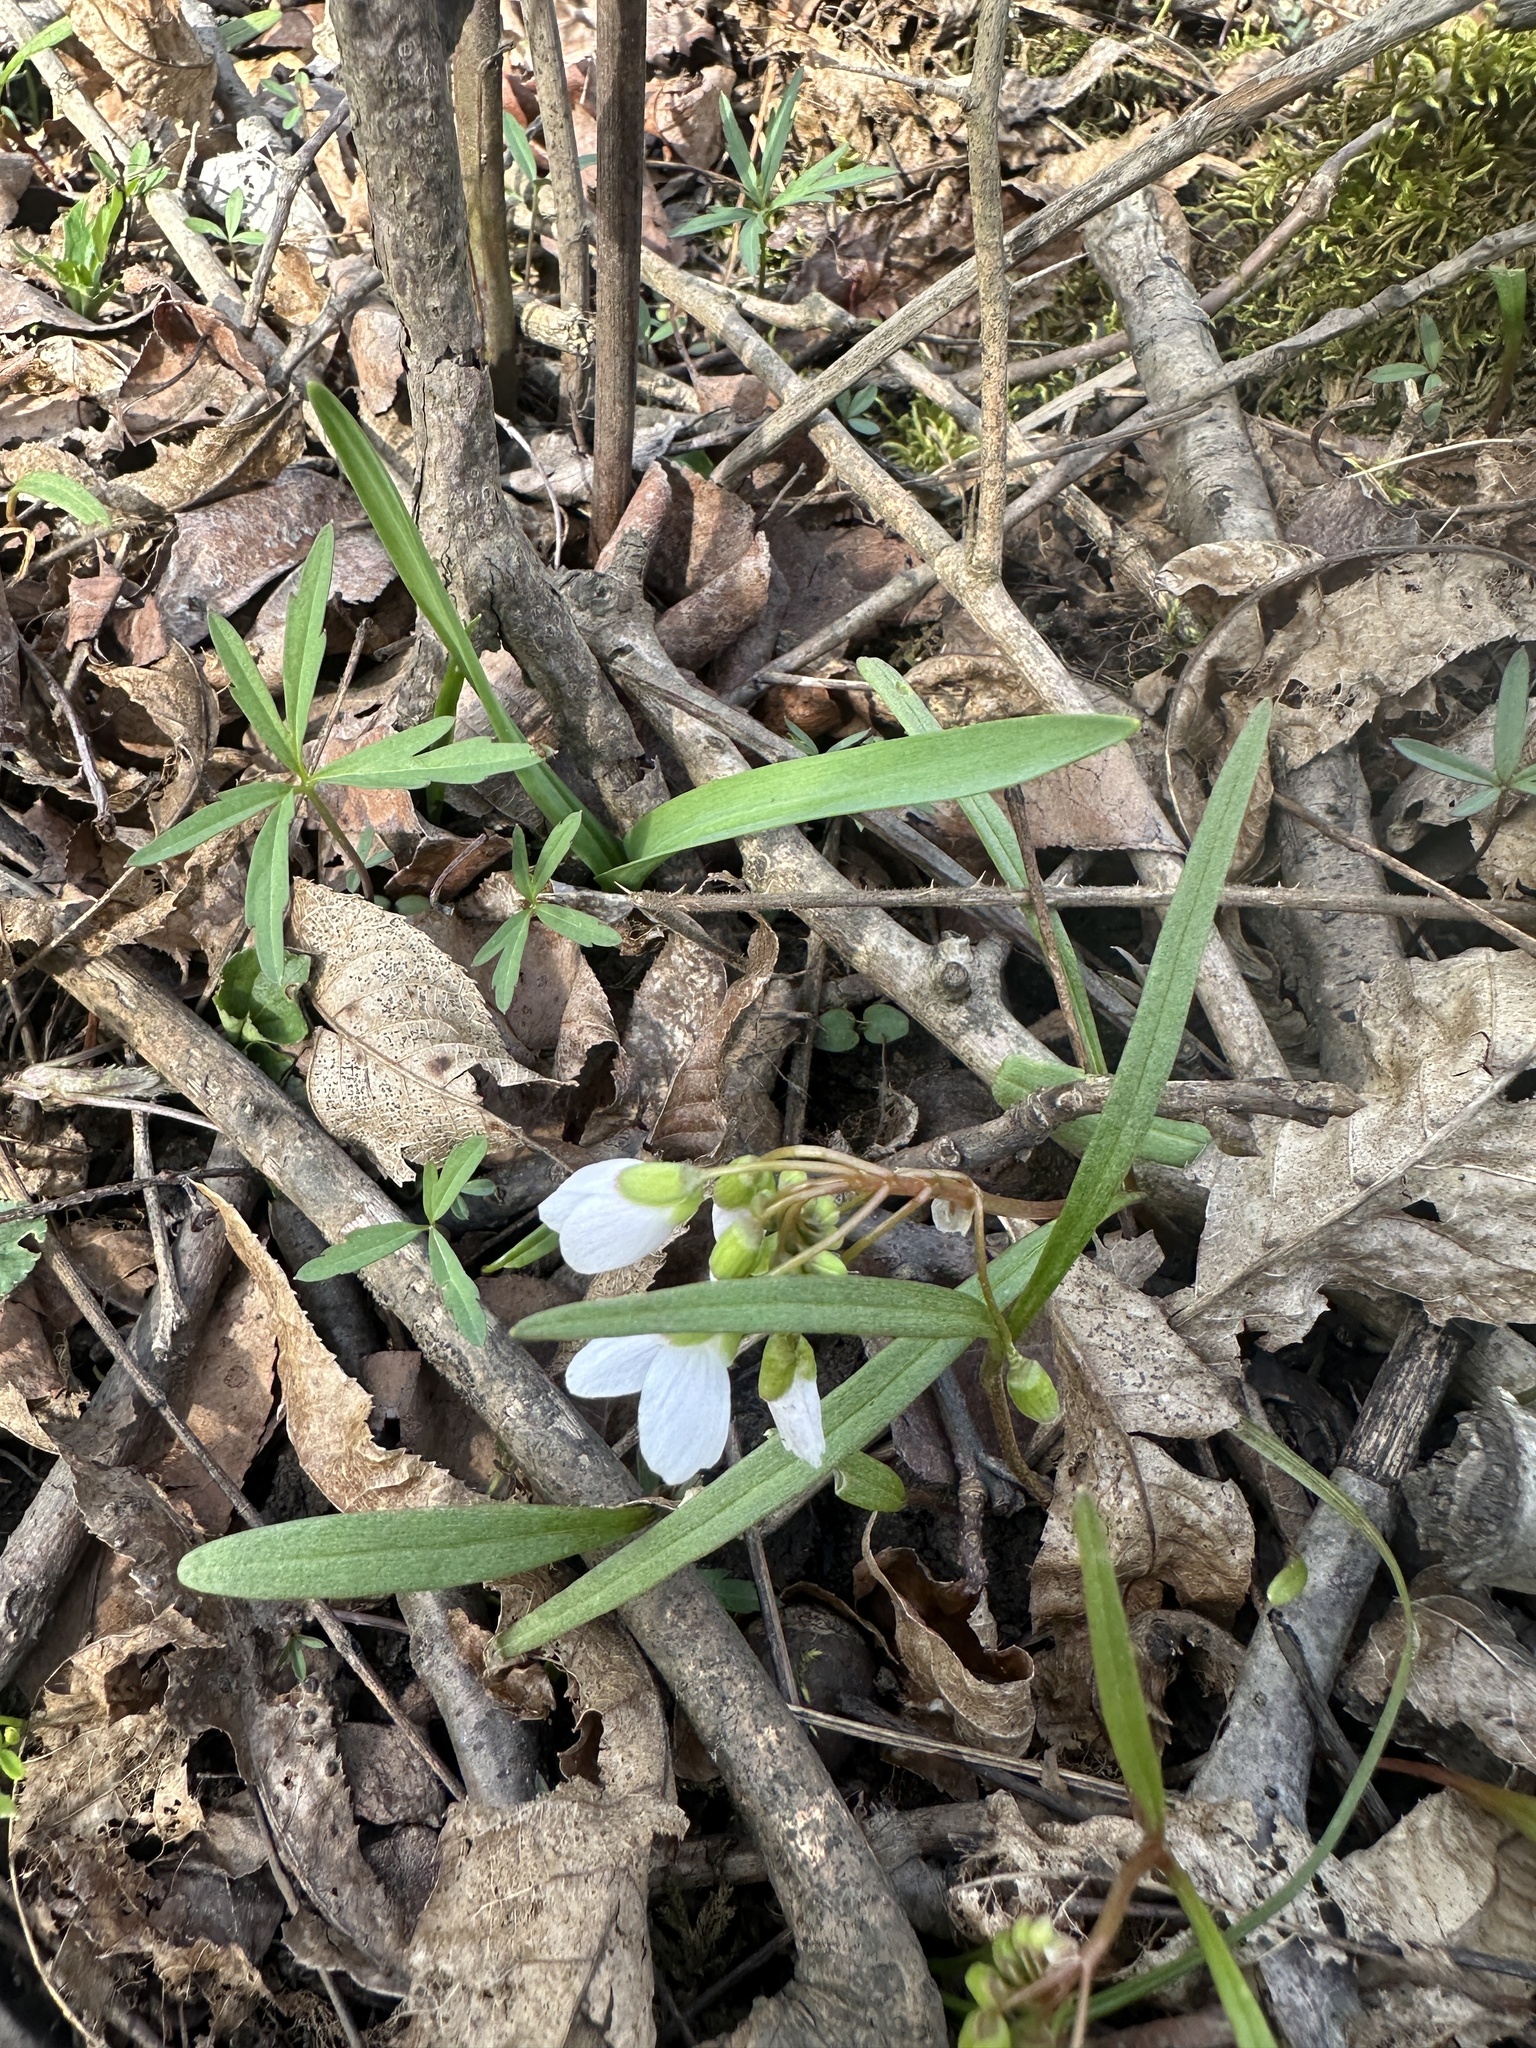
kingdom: Plantae
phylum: Tracheophyta
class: Magnoliopsida
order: Caryophyllales
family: Montiaceae
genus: Claytonia
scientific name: Claytonia virginica
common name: Virginia springbeauty
